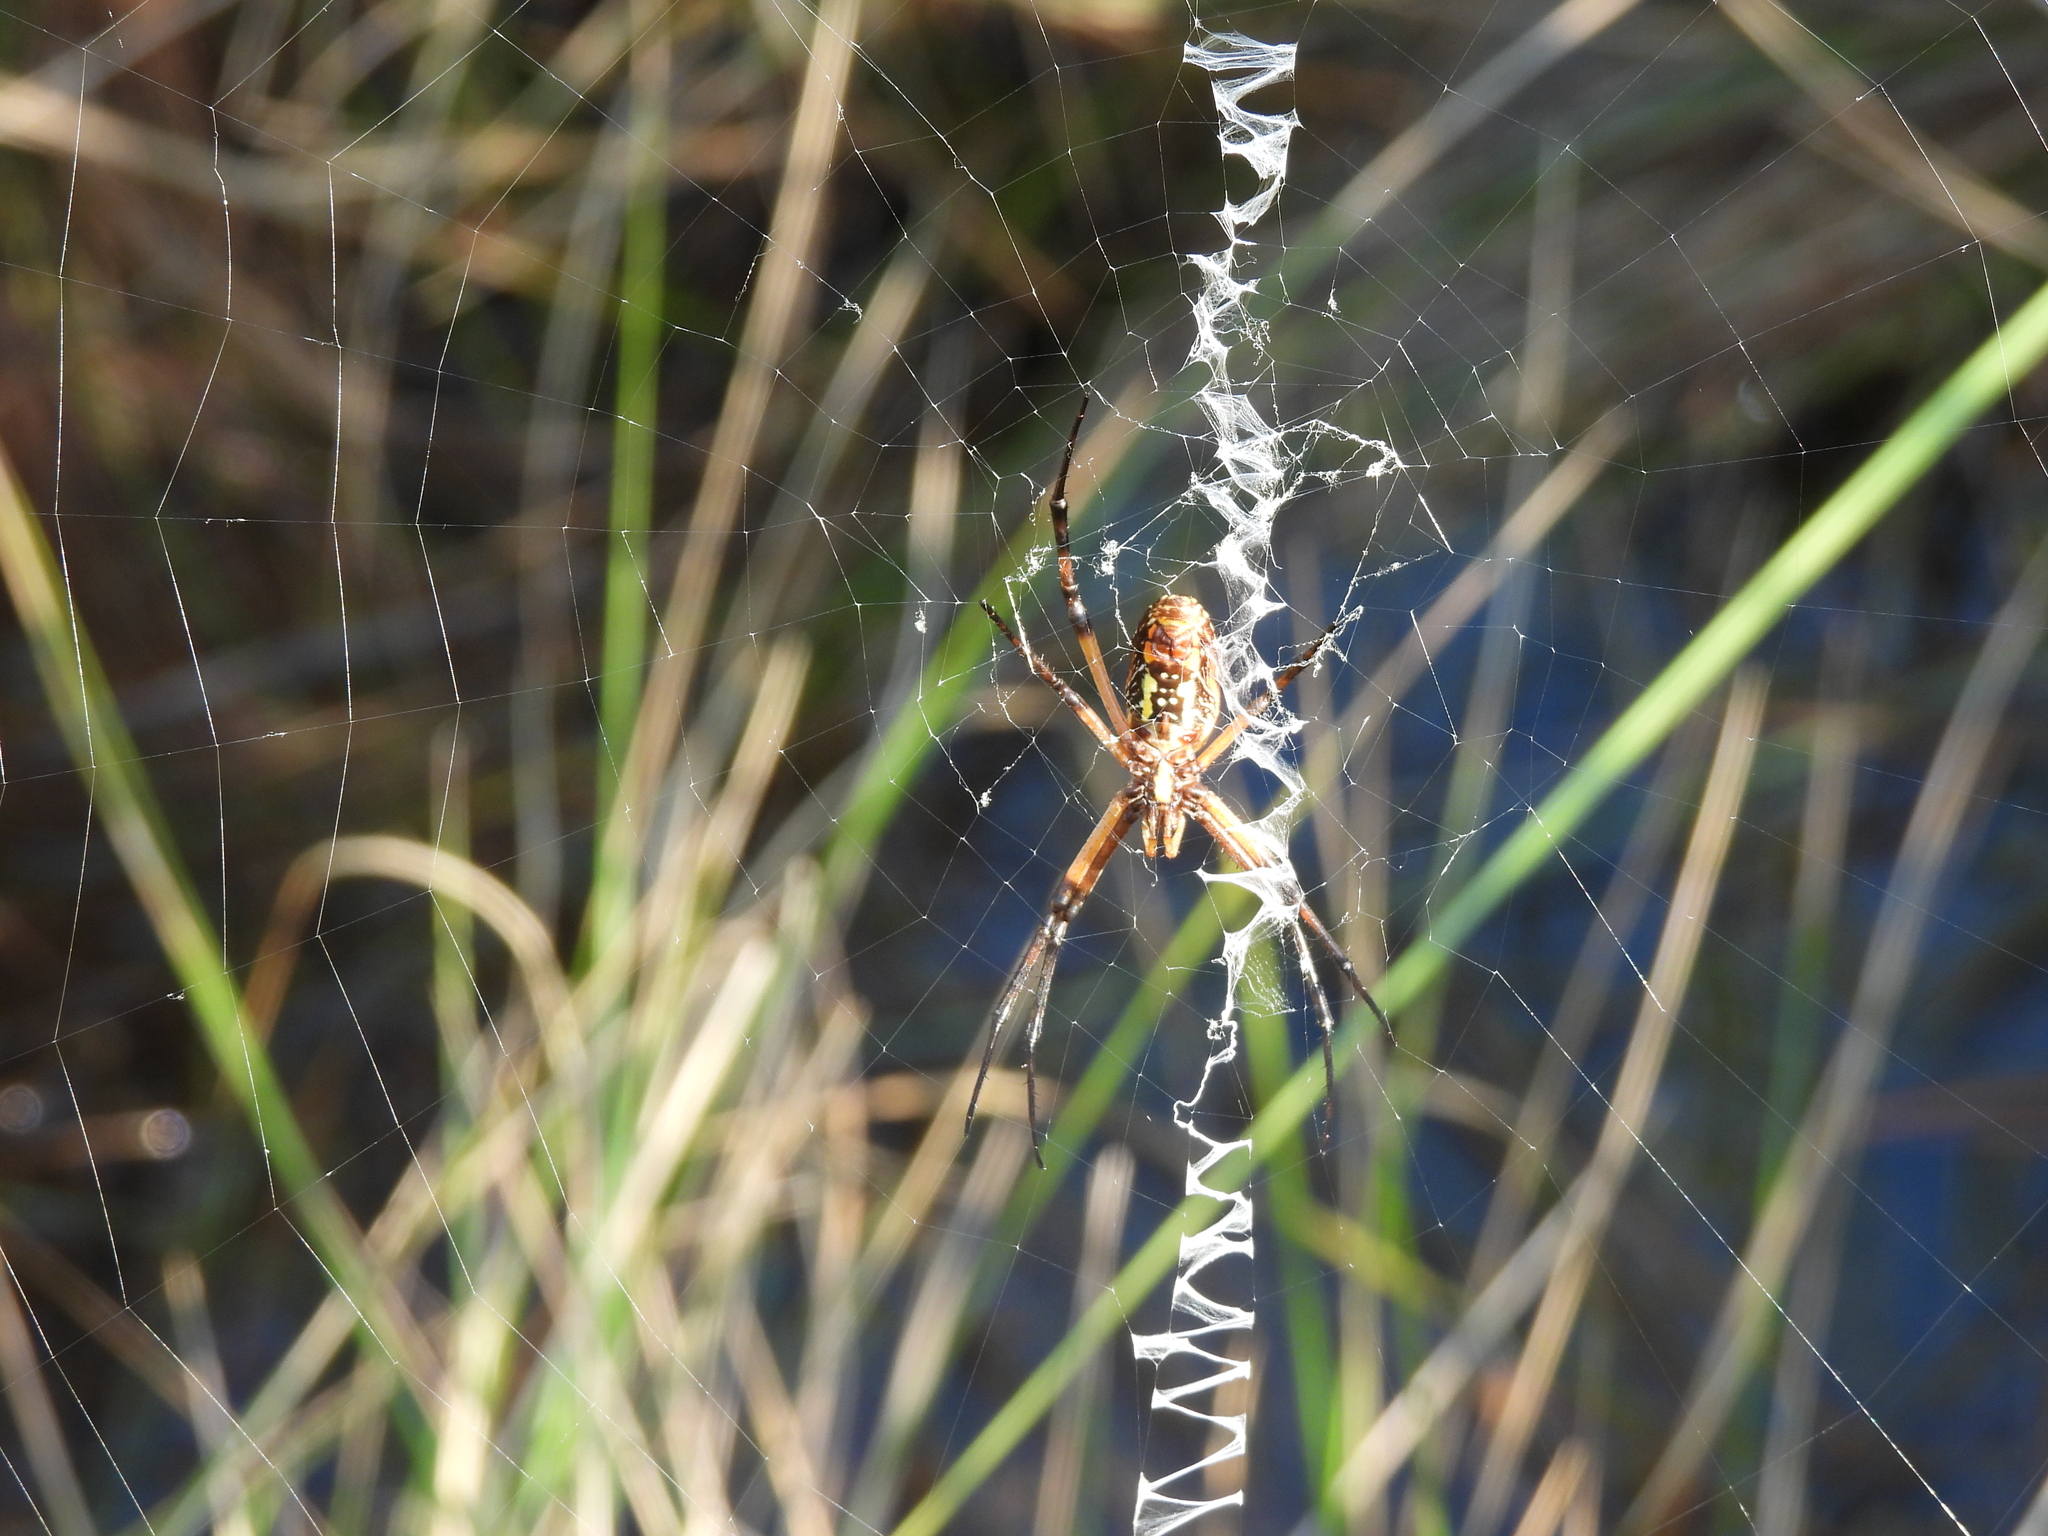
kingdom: Animalia
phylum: Arthropoda
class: Arachnida
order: Araneae
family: Araneidae
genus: Argiope
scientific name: Argiope aurantia
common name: Orb weavers
